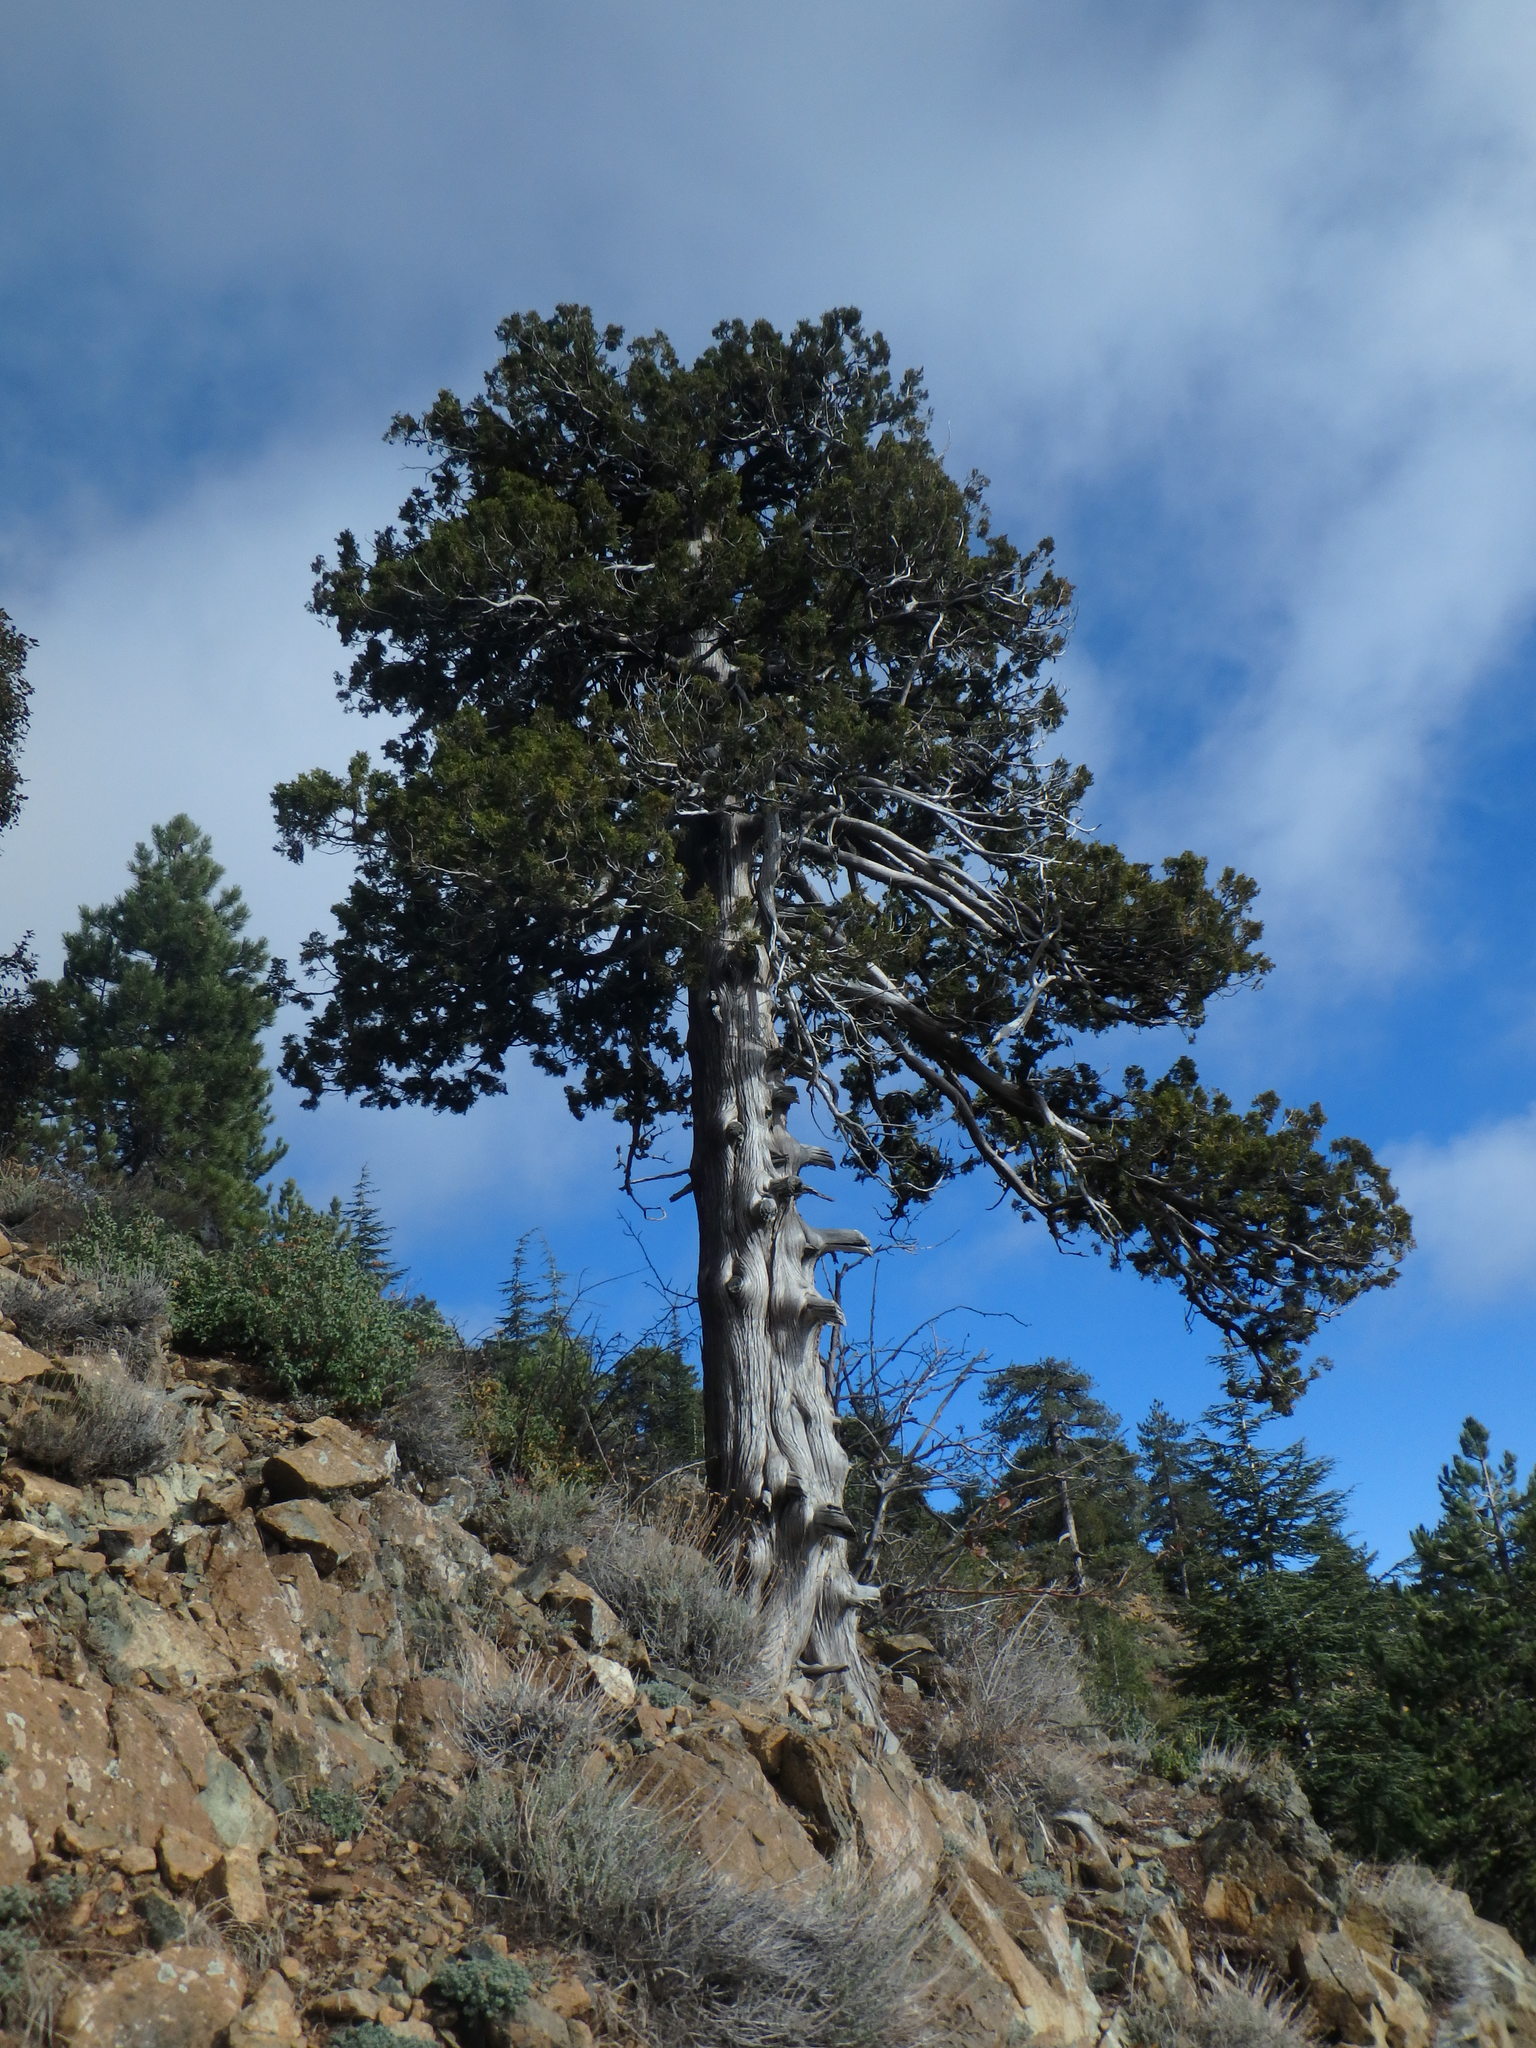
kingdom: Plantae
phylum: Tracheophyta
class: Pinopsida
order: Pinales
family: Cupressaceae
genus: Juniperus
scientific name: Juniperus foetidissima
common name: Stinking juniper
